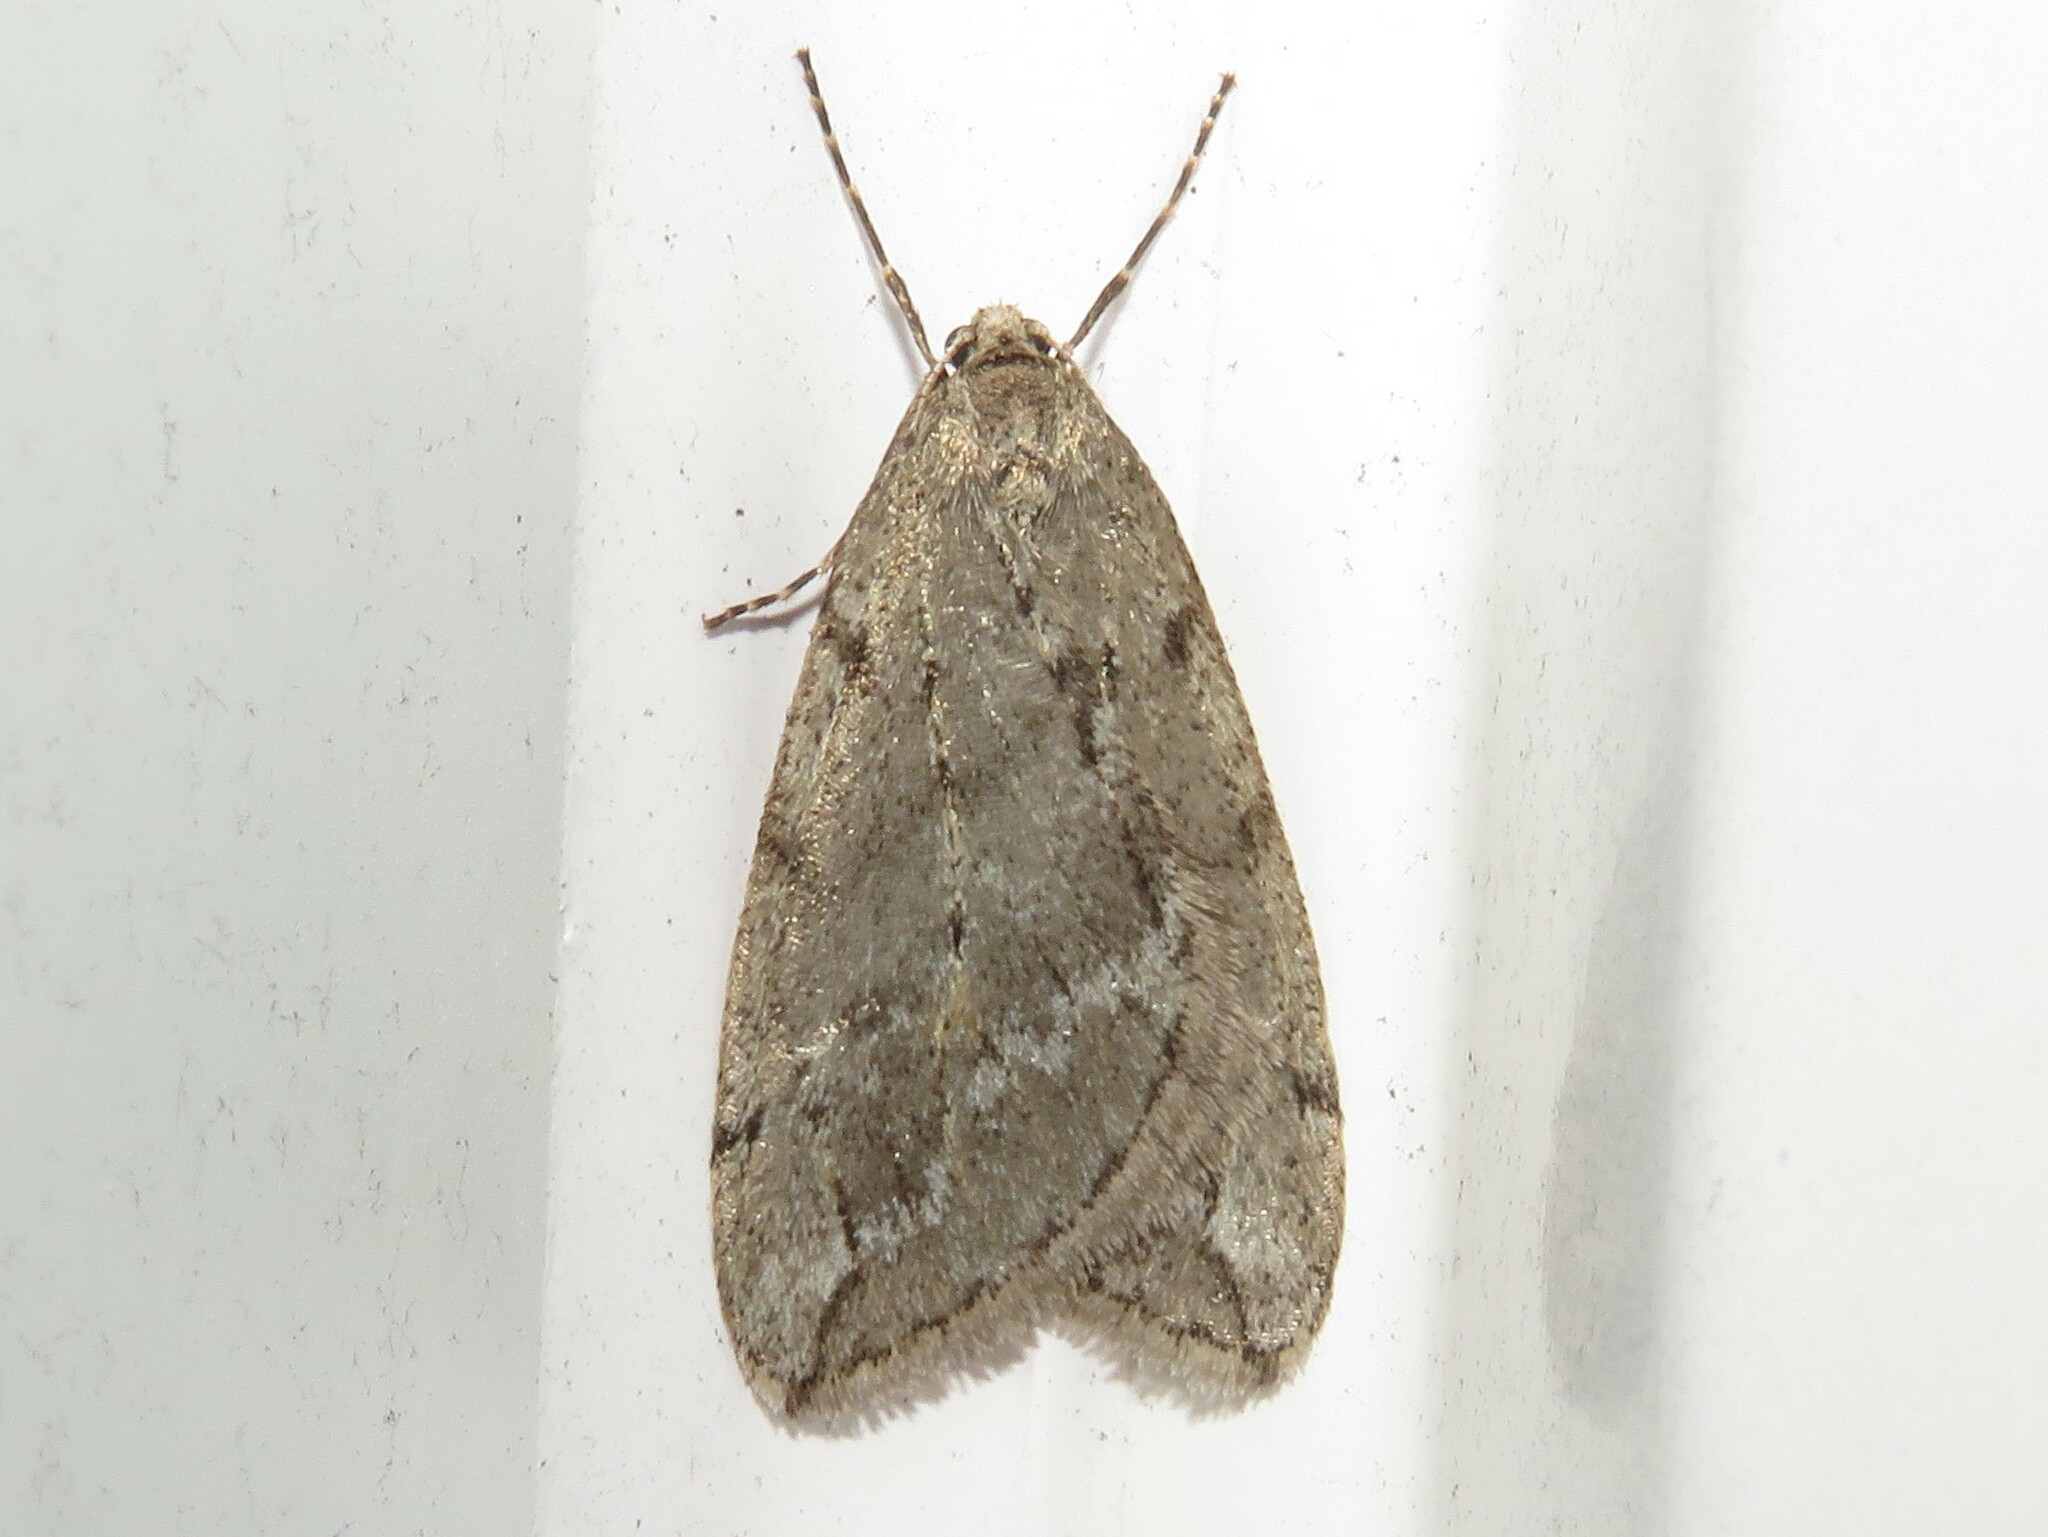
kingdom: Animalia
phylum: Arthropoda
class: Insecta
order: Lepidoptera
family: Geometridae
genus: Paleacrita
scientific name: Paleacrita vernata
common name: Spring cankerworm
